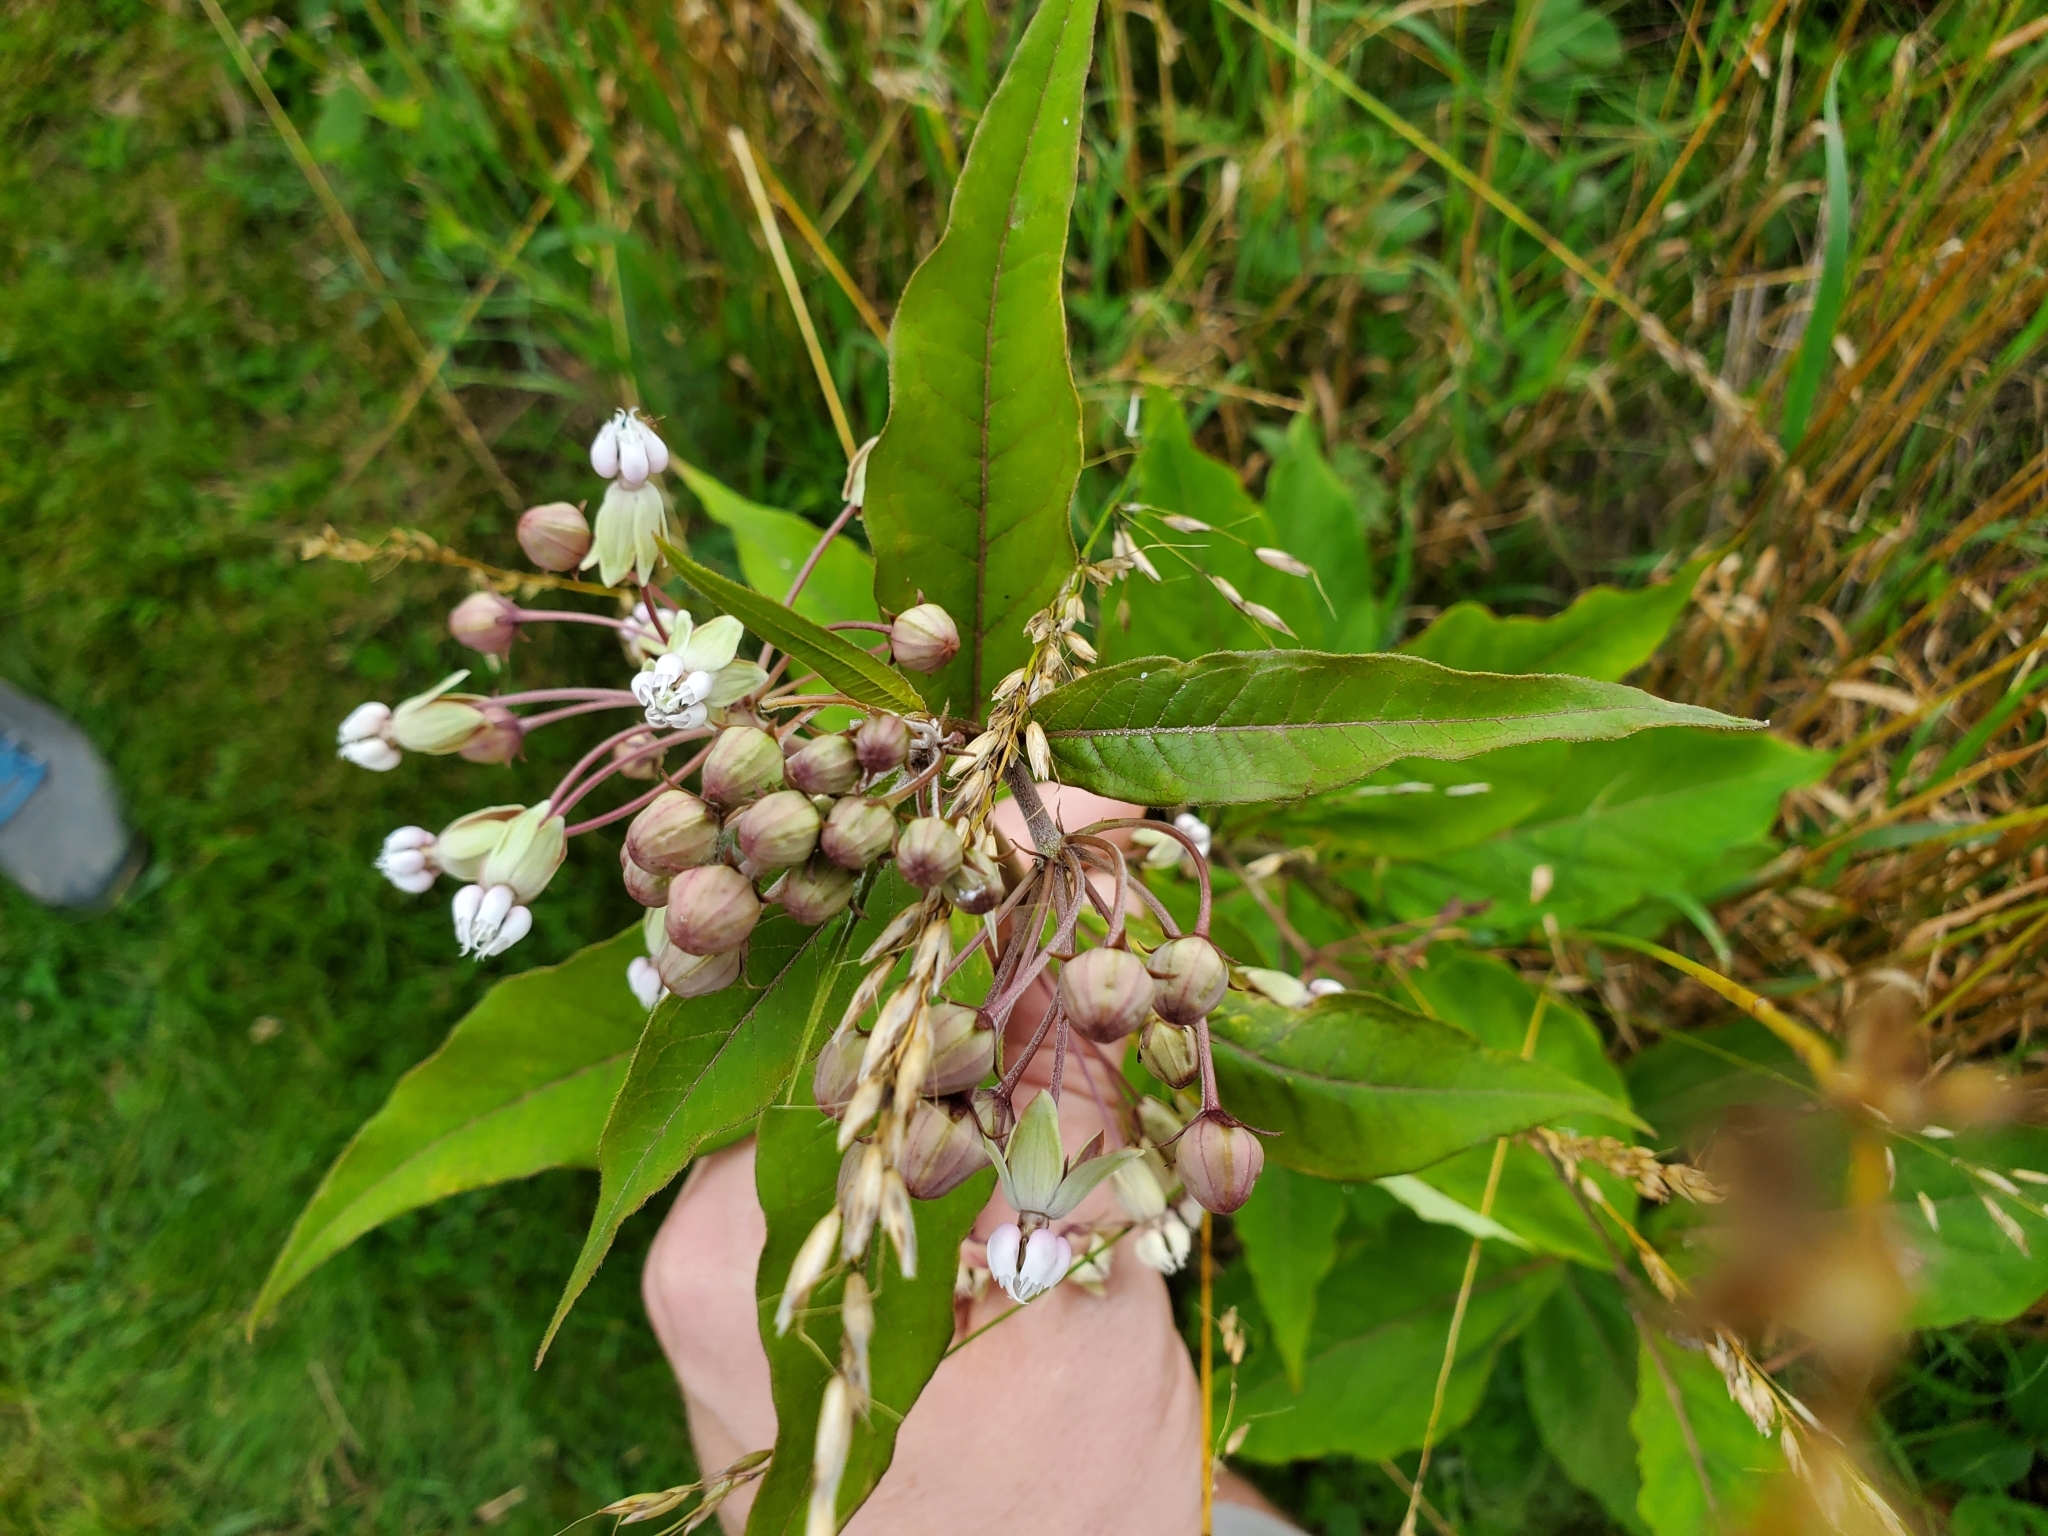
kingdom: Plantae
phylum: Tracheophyta
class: Magnoliopsida
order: Gentianales
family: Apocynaceae
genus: Asclepias
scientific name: Asclepias exaltata
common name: Poke milkweed
